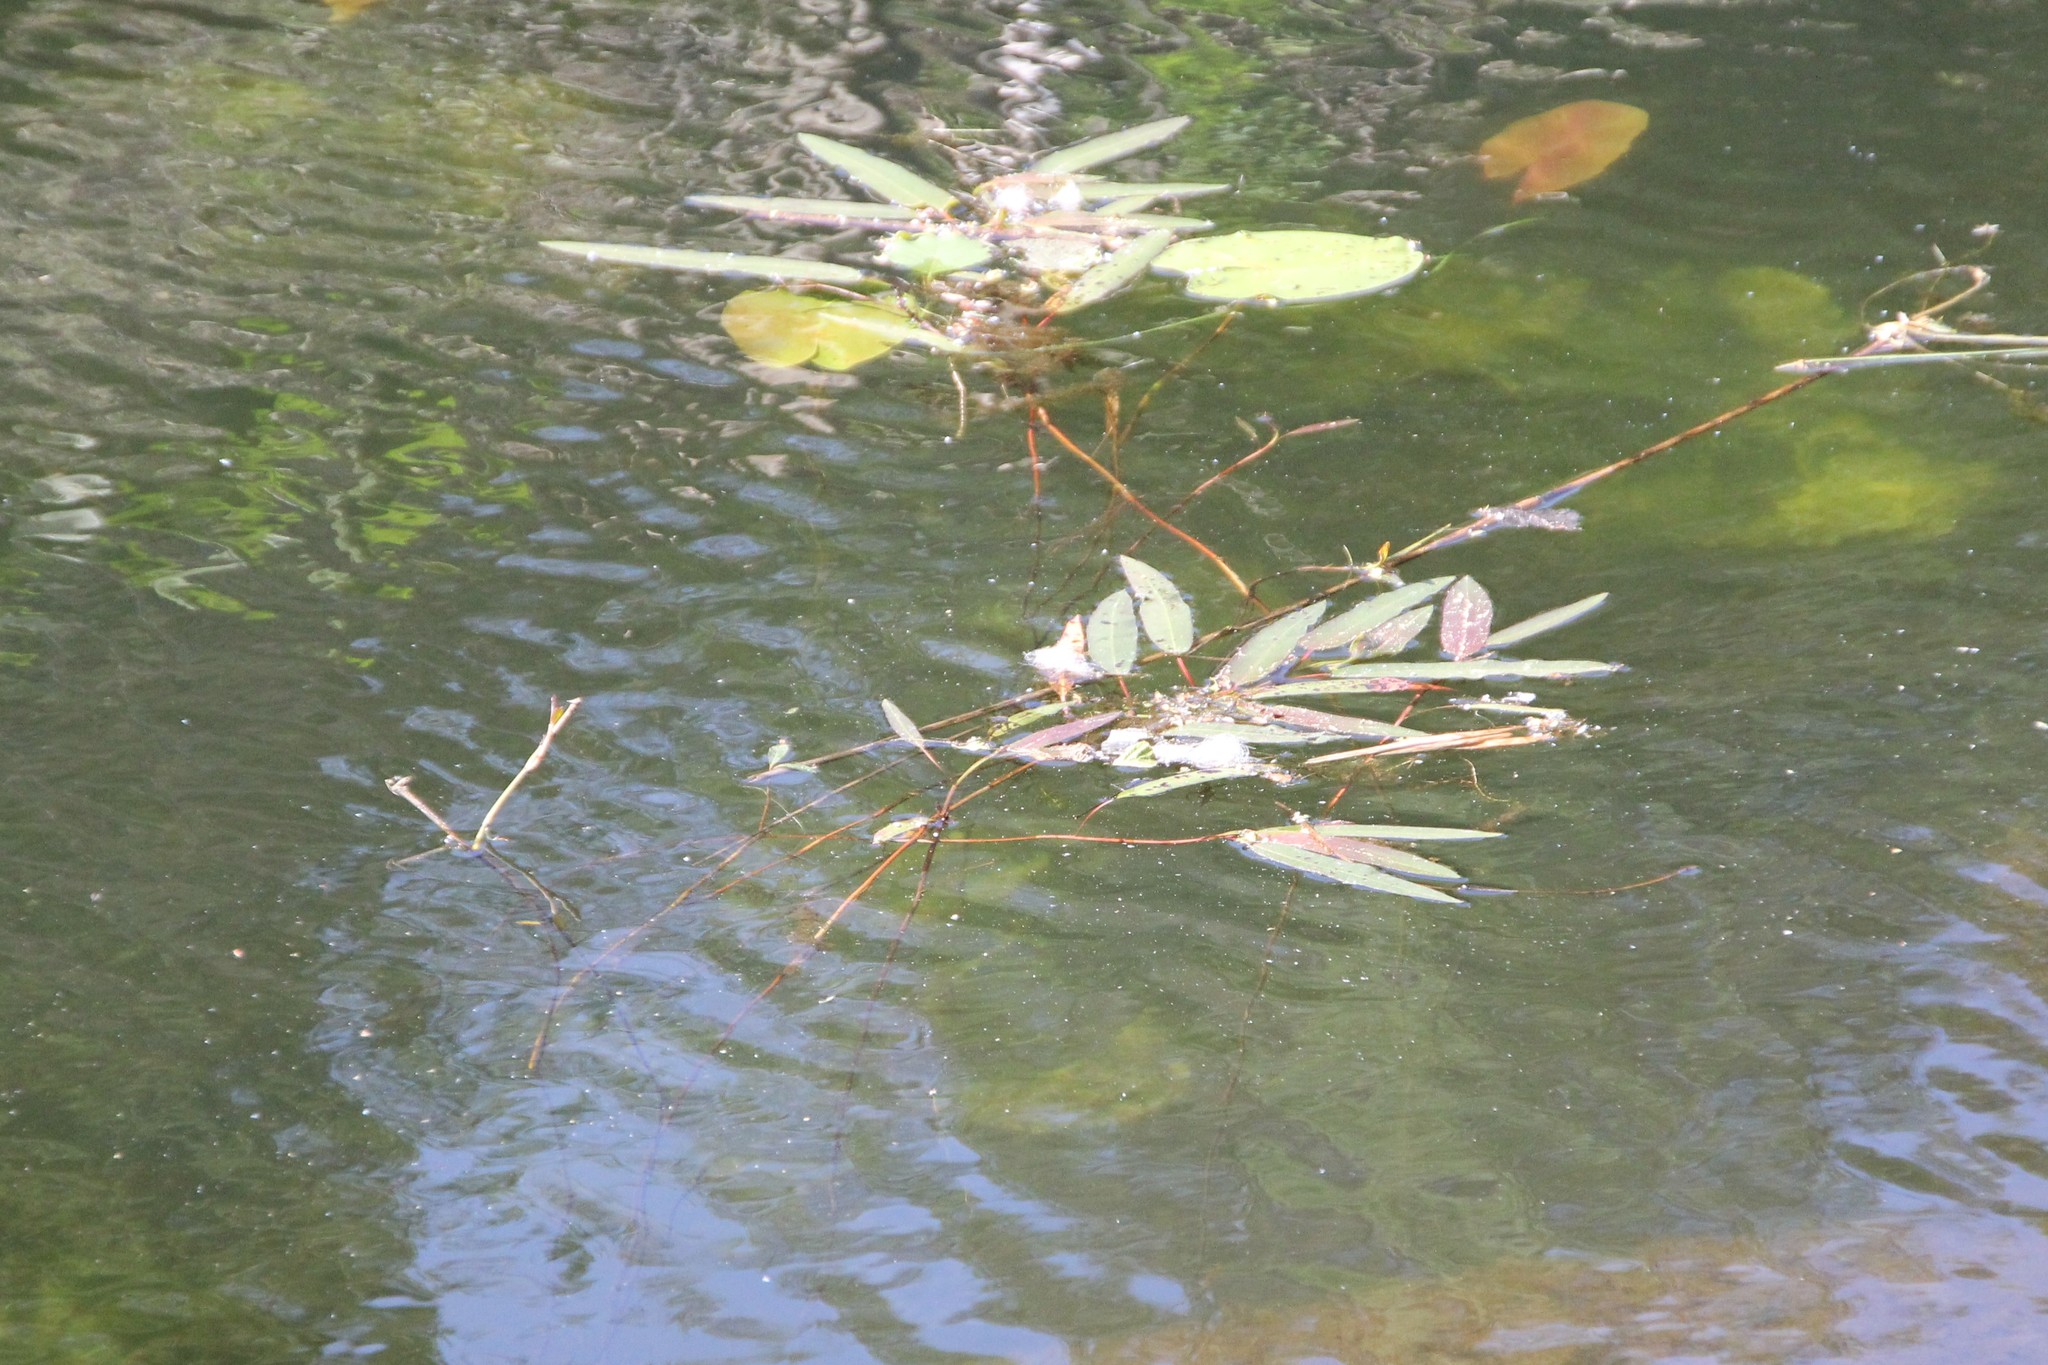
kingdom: Plantae
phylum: Tracheophyta
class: Magnoliopsida
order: Caryophyllales
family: Polygonaceae
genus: Persicaria
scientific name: Persicaria amphibia
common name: Amphibious bistort
